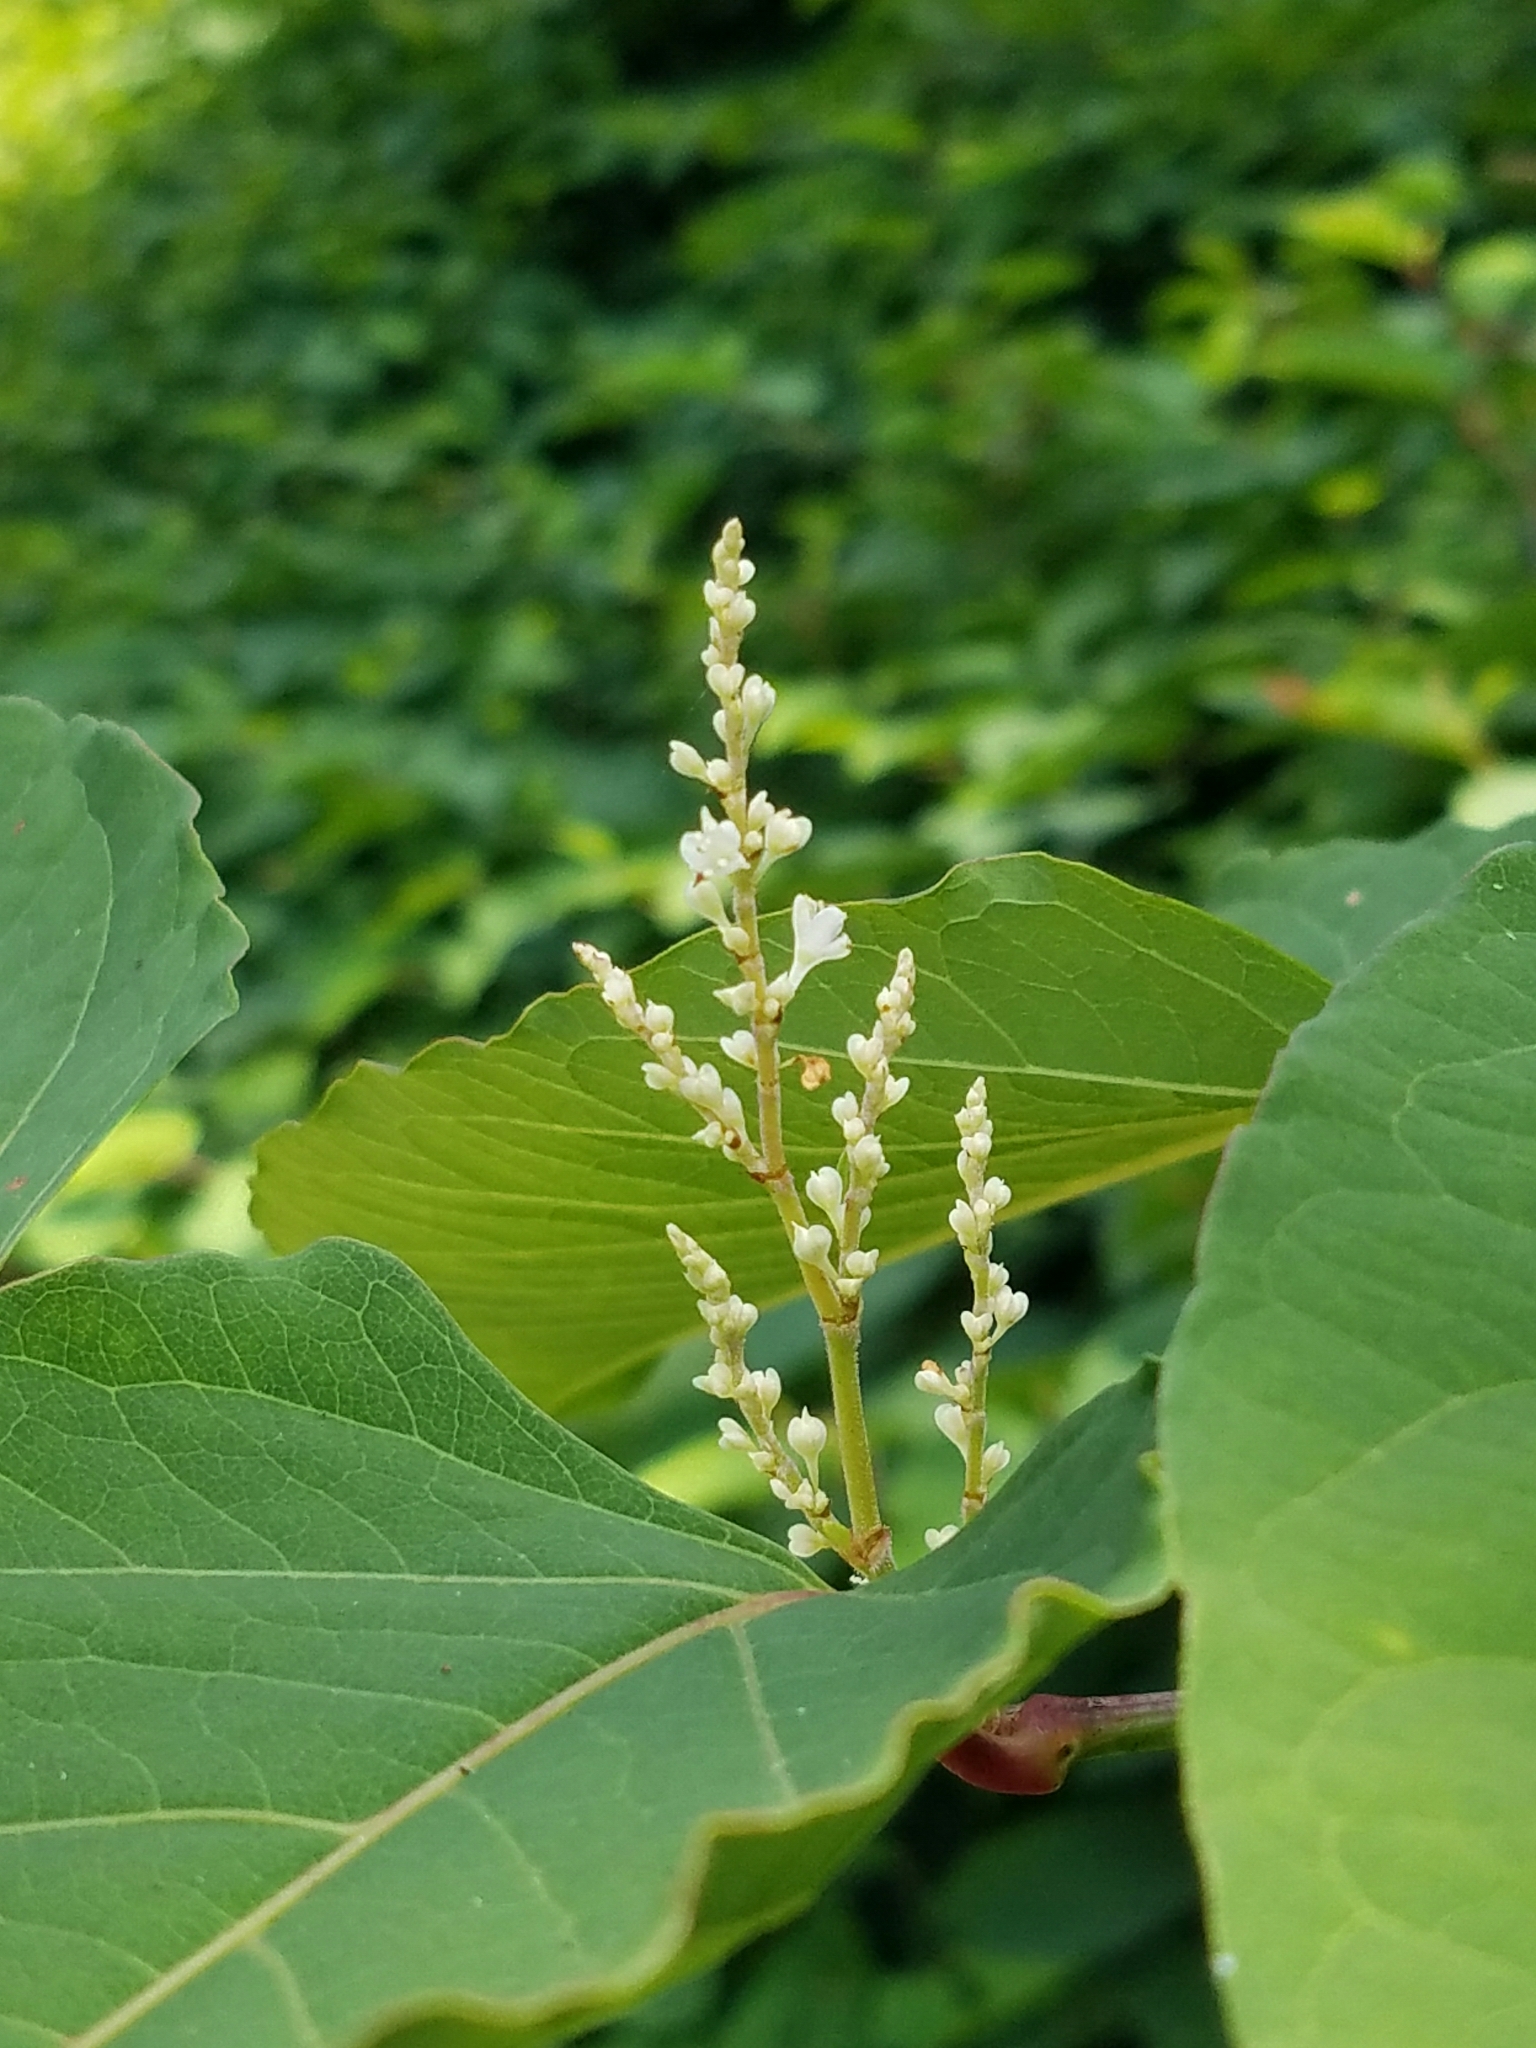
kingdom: Plantae
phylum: Tracheophyta
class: Magnoliopsida
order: Caryophyllales
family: Polygonaceae
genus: Reynoutria
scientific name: Reynoutria bohemica
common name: Bohemian knotweed
